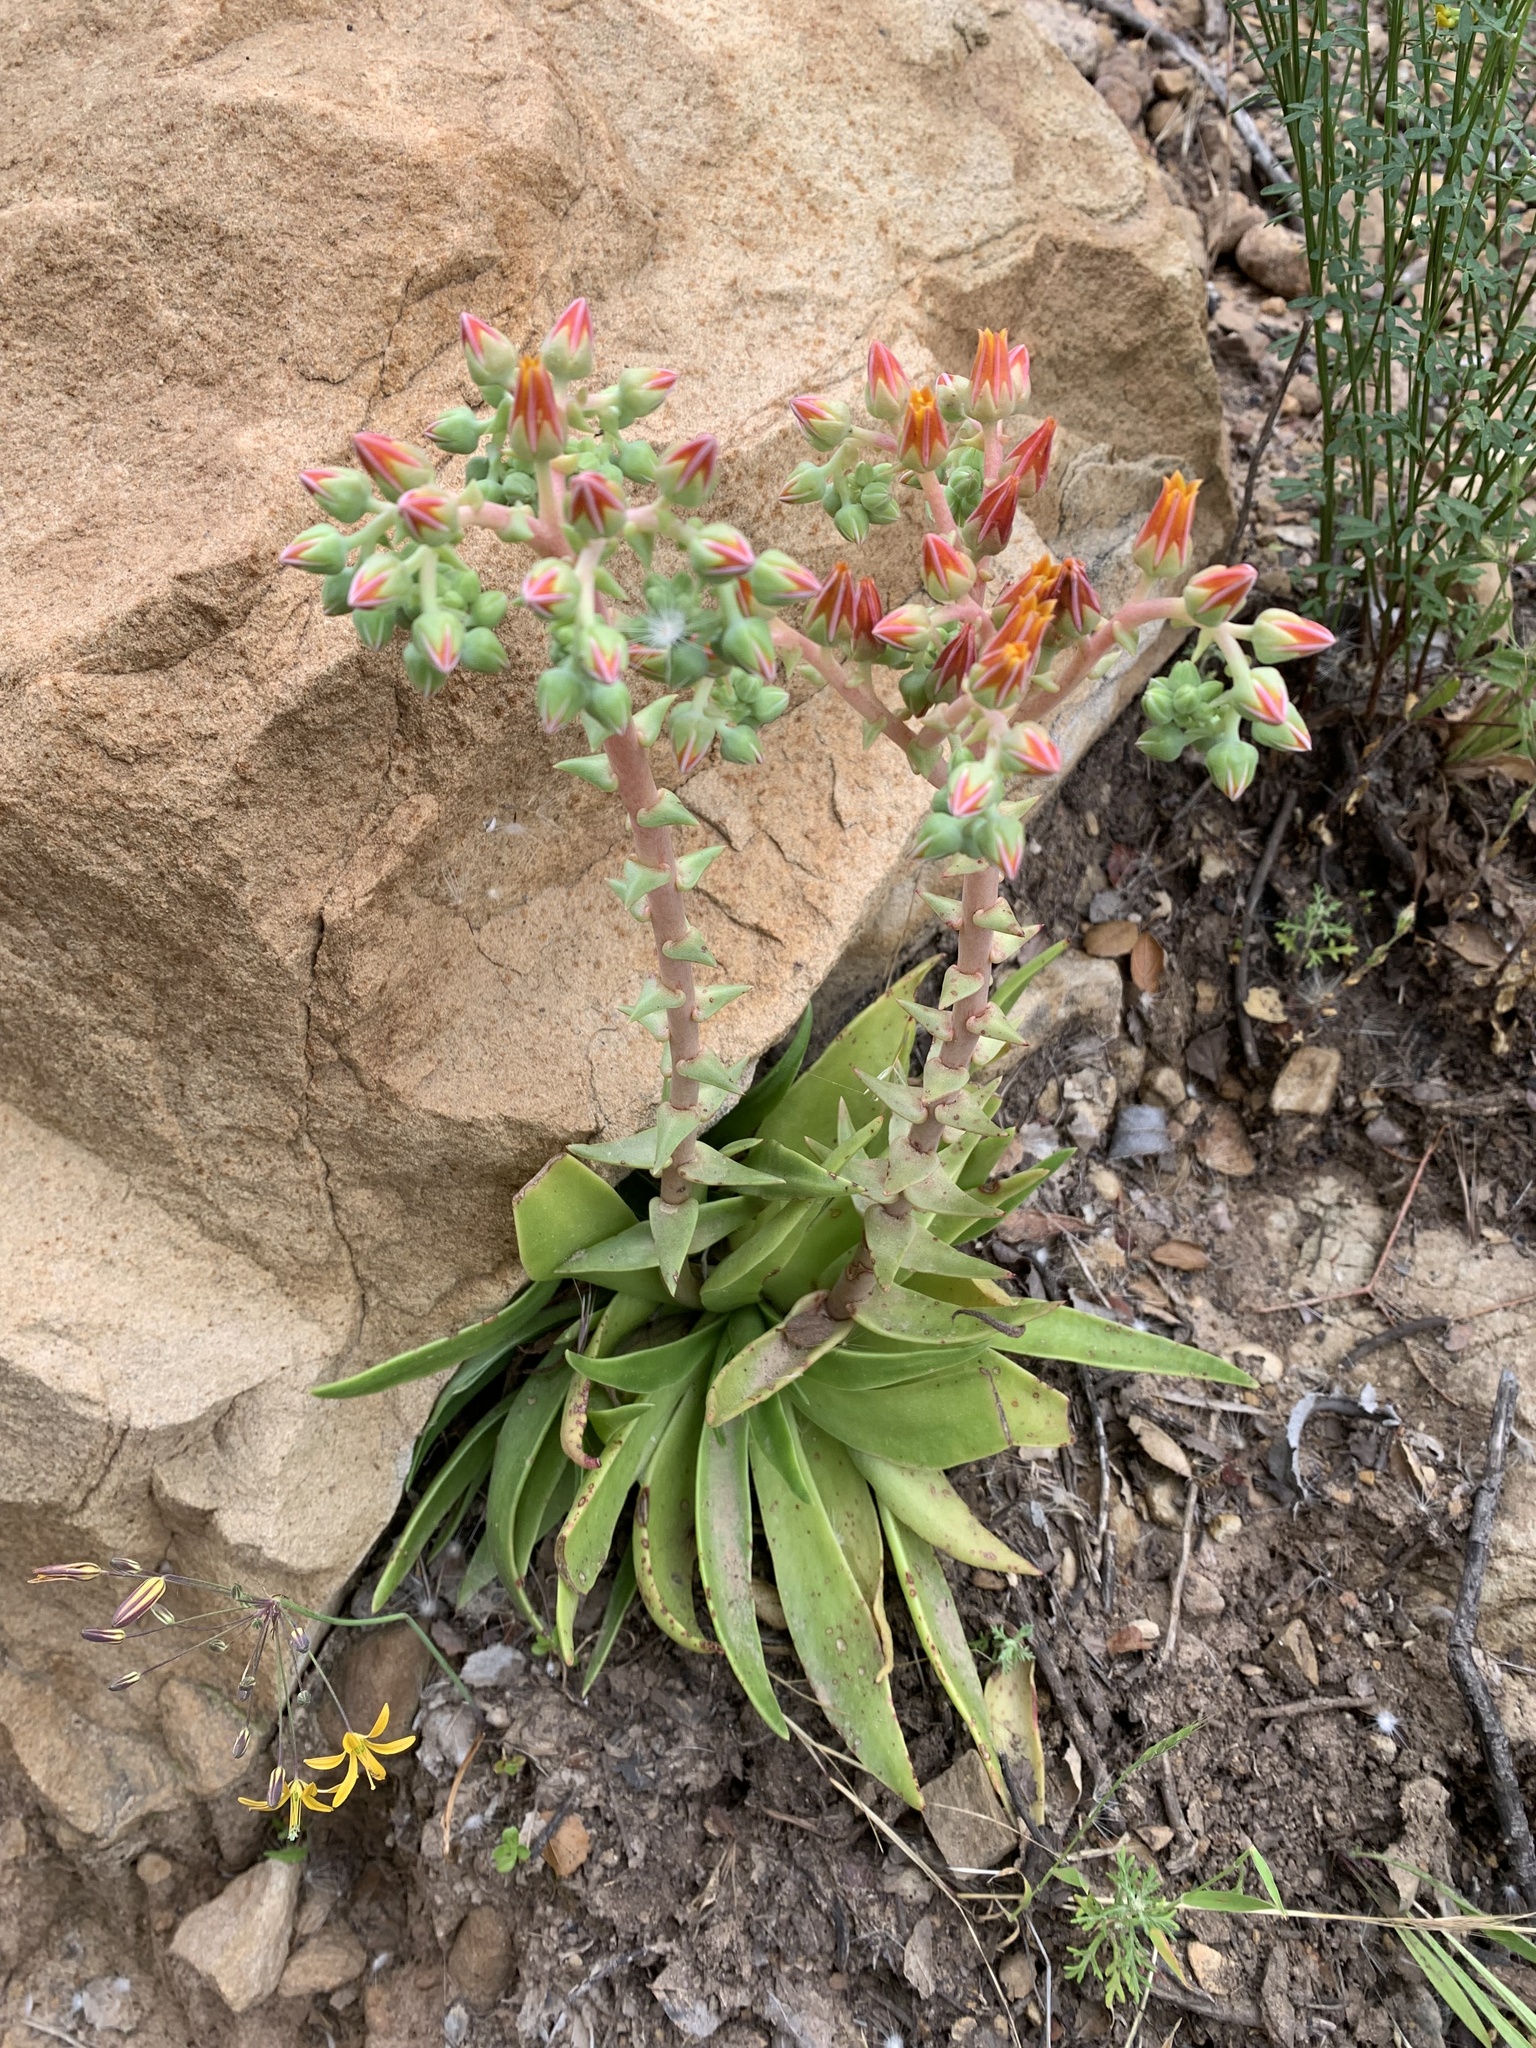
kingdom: Plantae
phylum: Tracheophyta
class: Magnoliopsida
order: Saxifragales
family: Crassulaceae
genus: Dudleya
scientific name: Dudleya lanceolata
